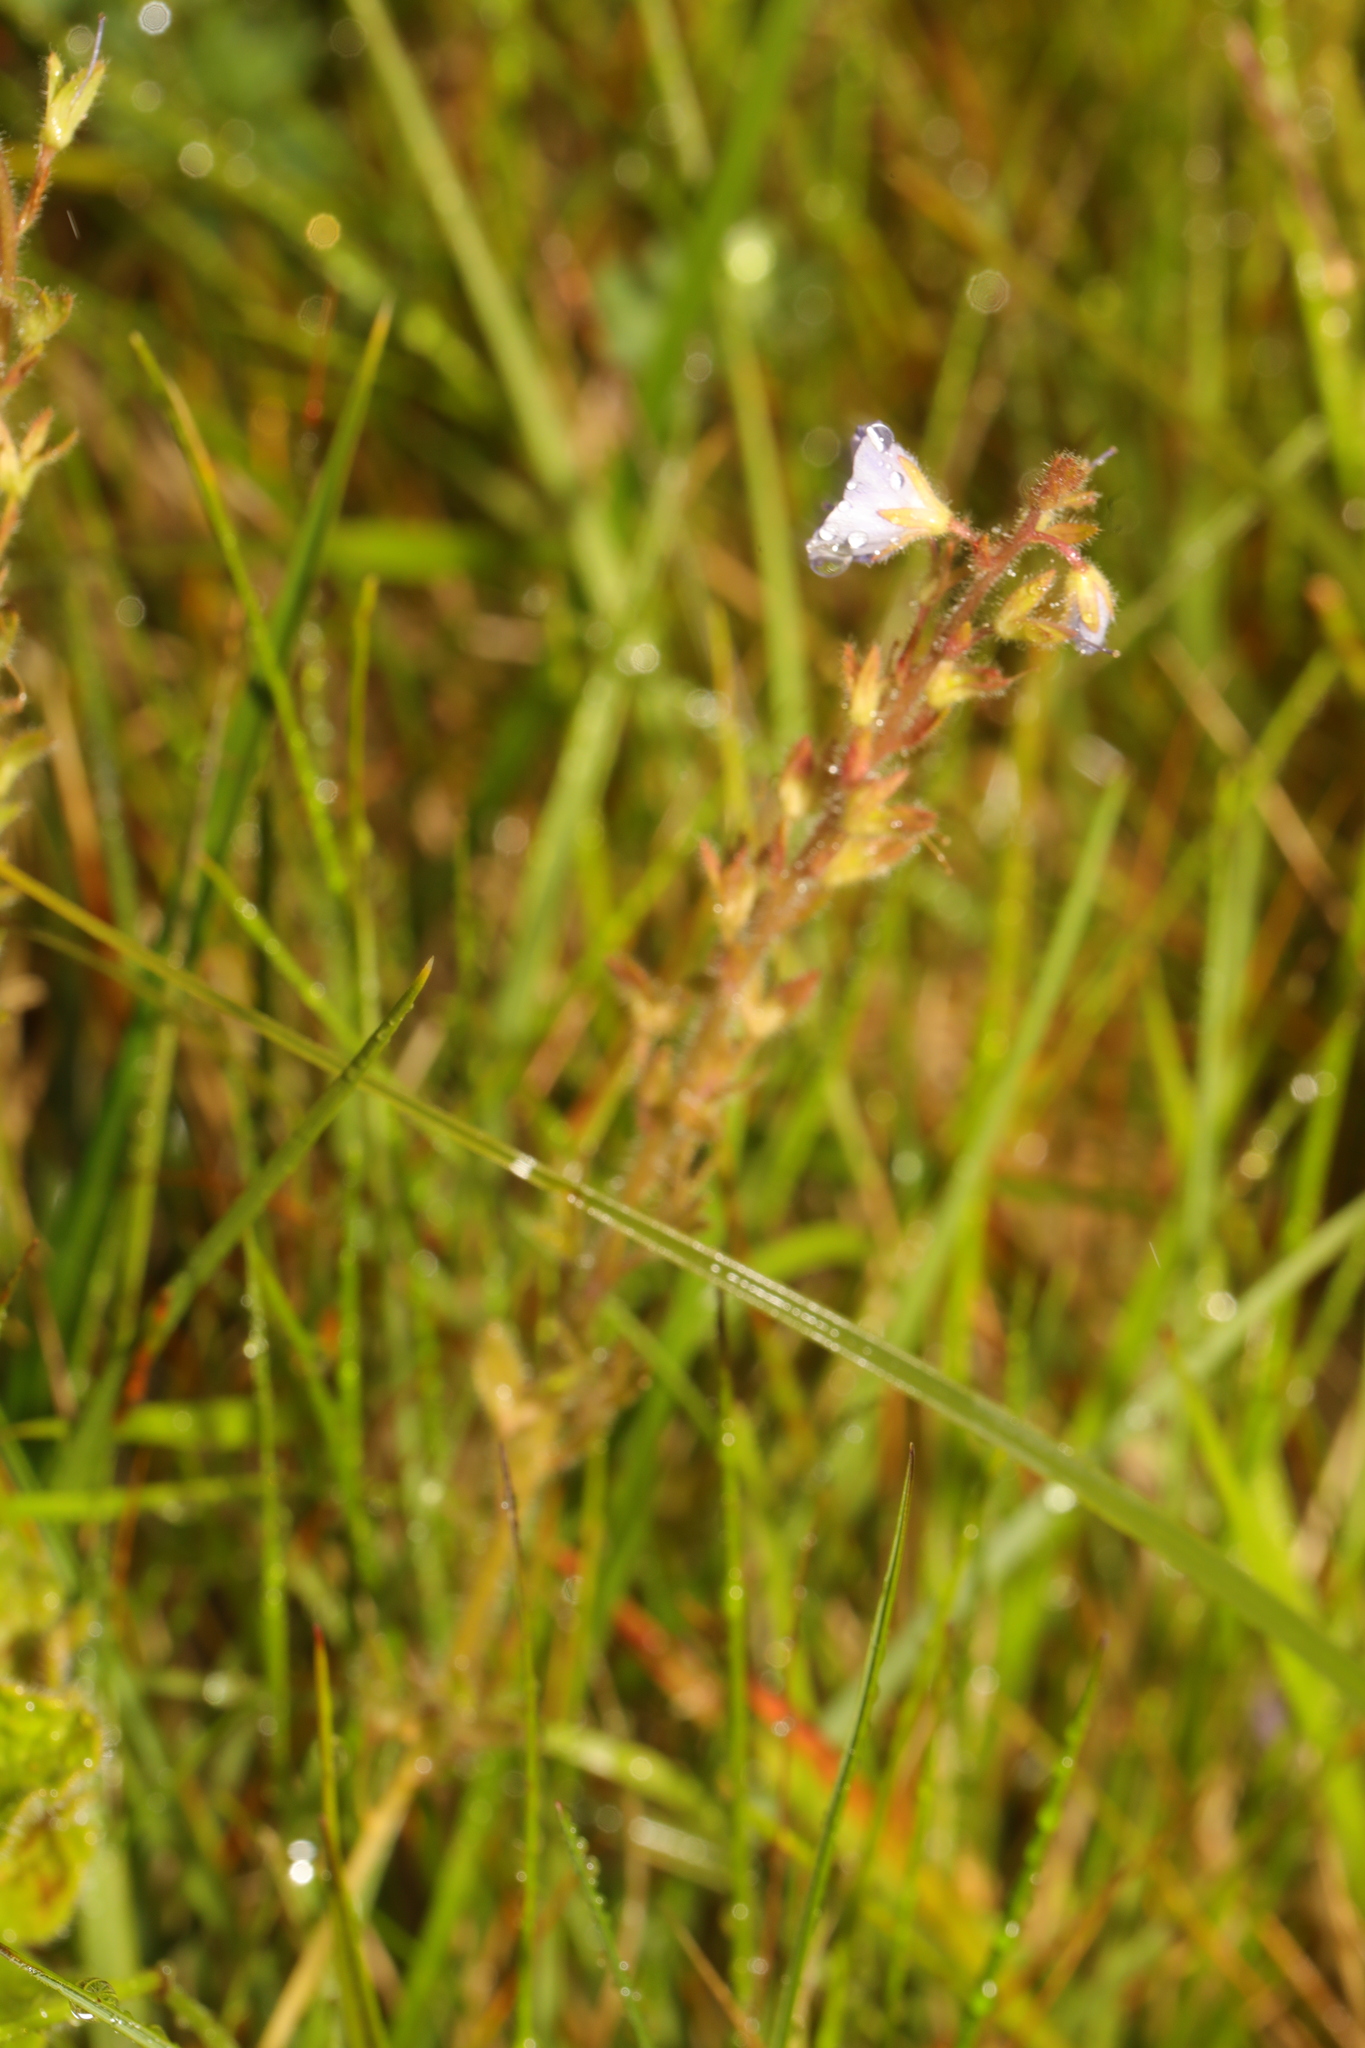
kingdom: Plantae
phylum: Tracheophyta
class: Magnoliopsida
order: Lamiales
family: Plantaginaceae
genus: Veronica
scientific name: Veronica officinalis
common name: Common speedwell
